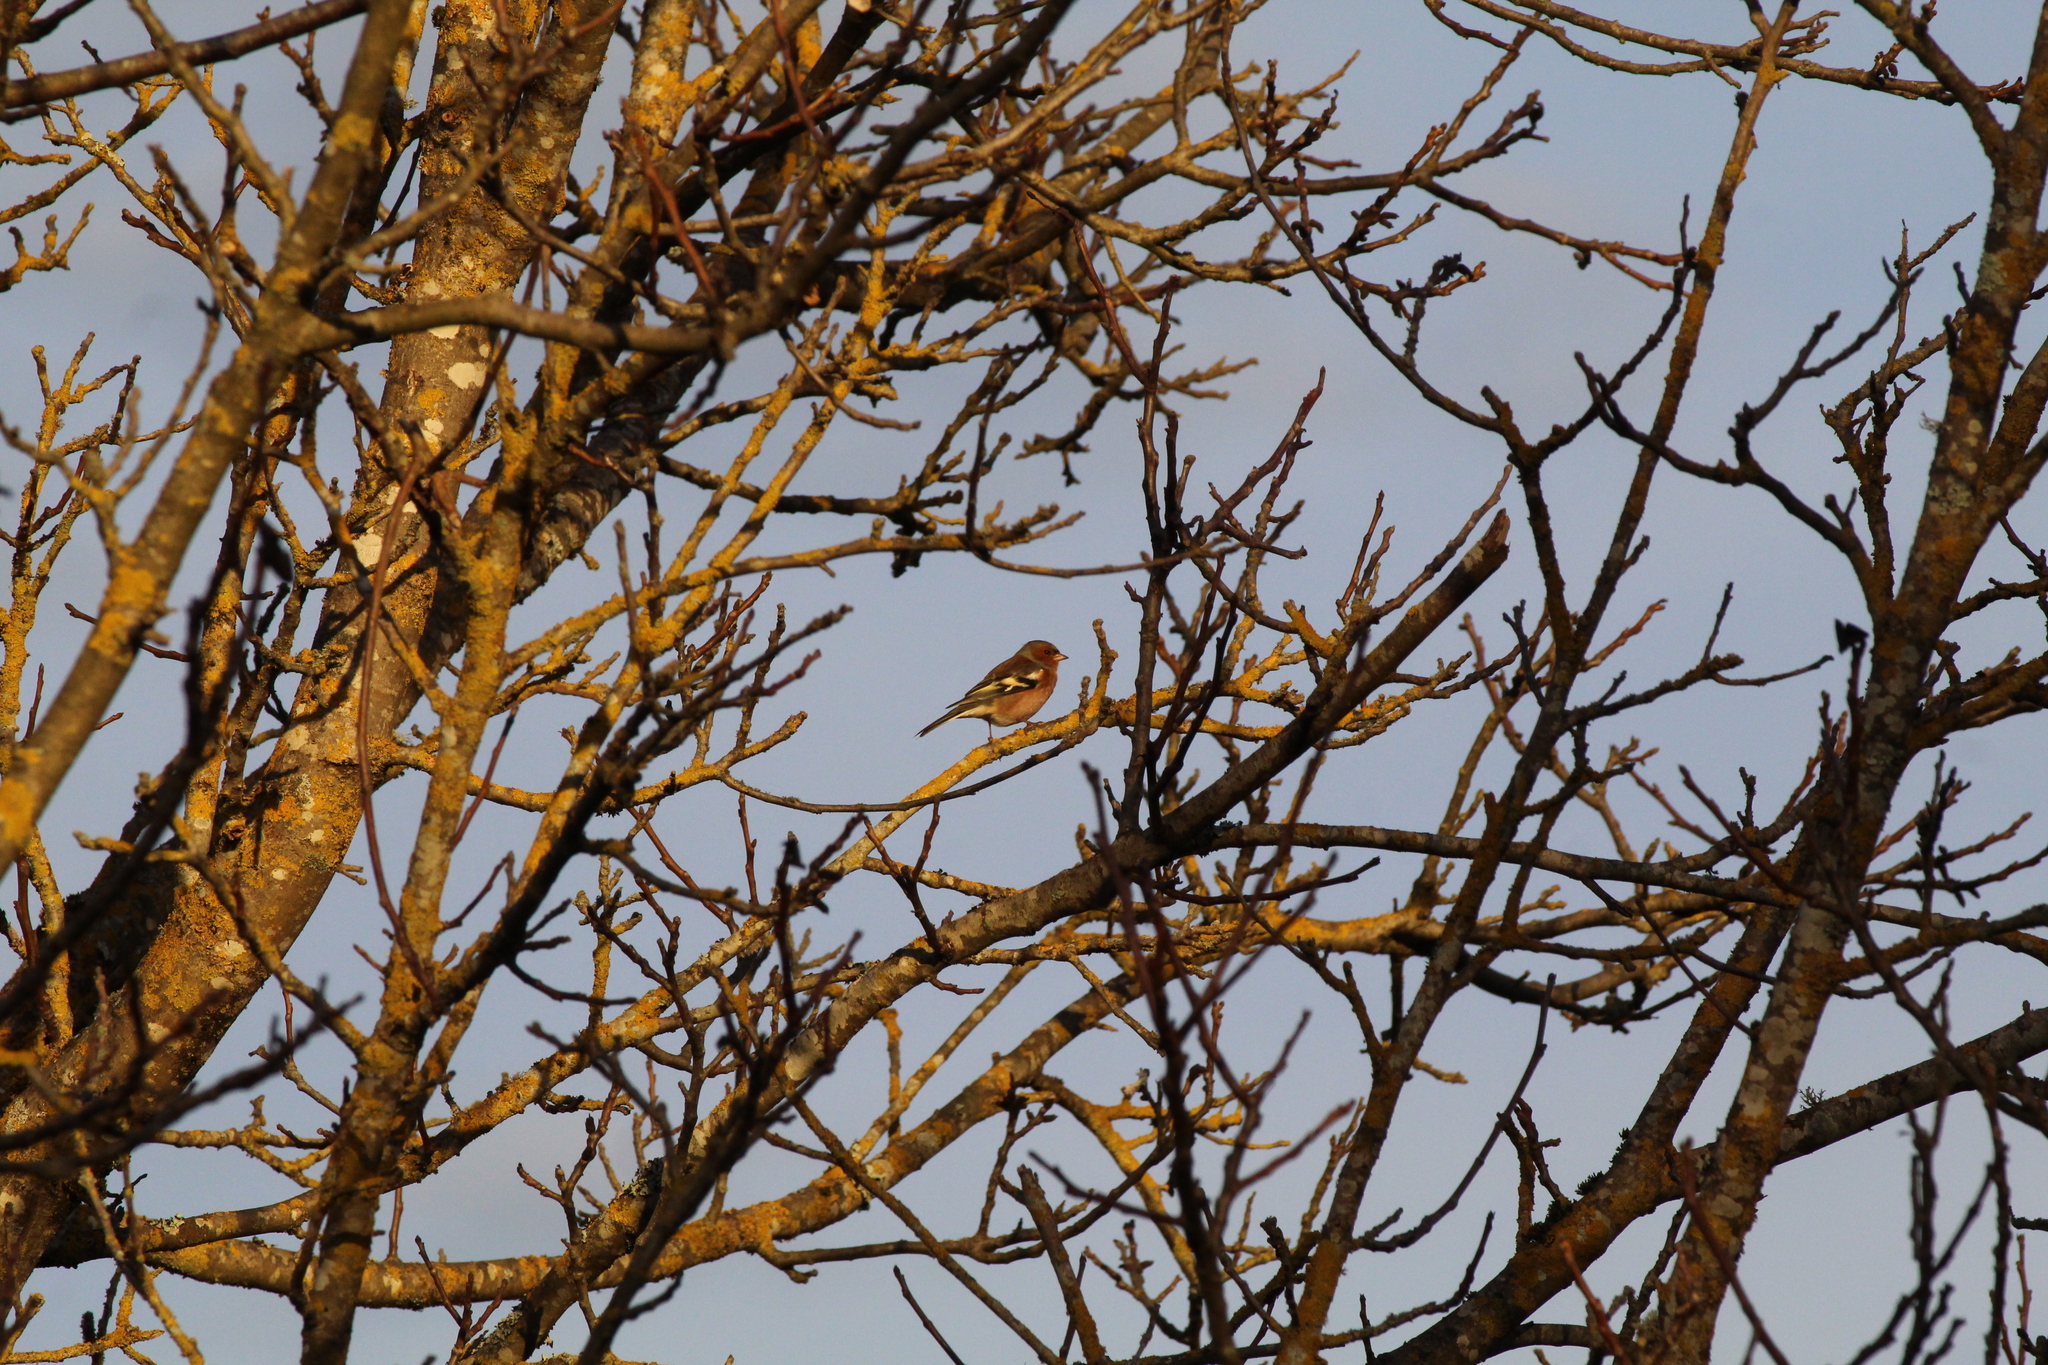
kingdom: Animalia
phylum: Chordata
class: Aves
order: Passeriformes
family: Fringillidae
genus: Fringilla
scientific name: Fringilla coelebs
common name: Common chaffinch
